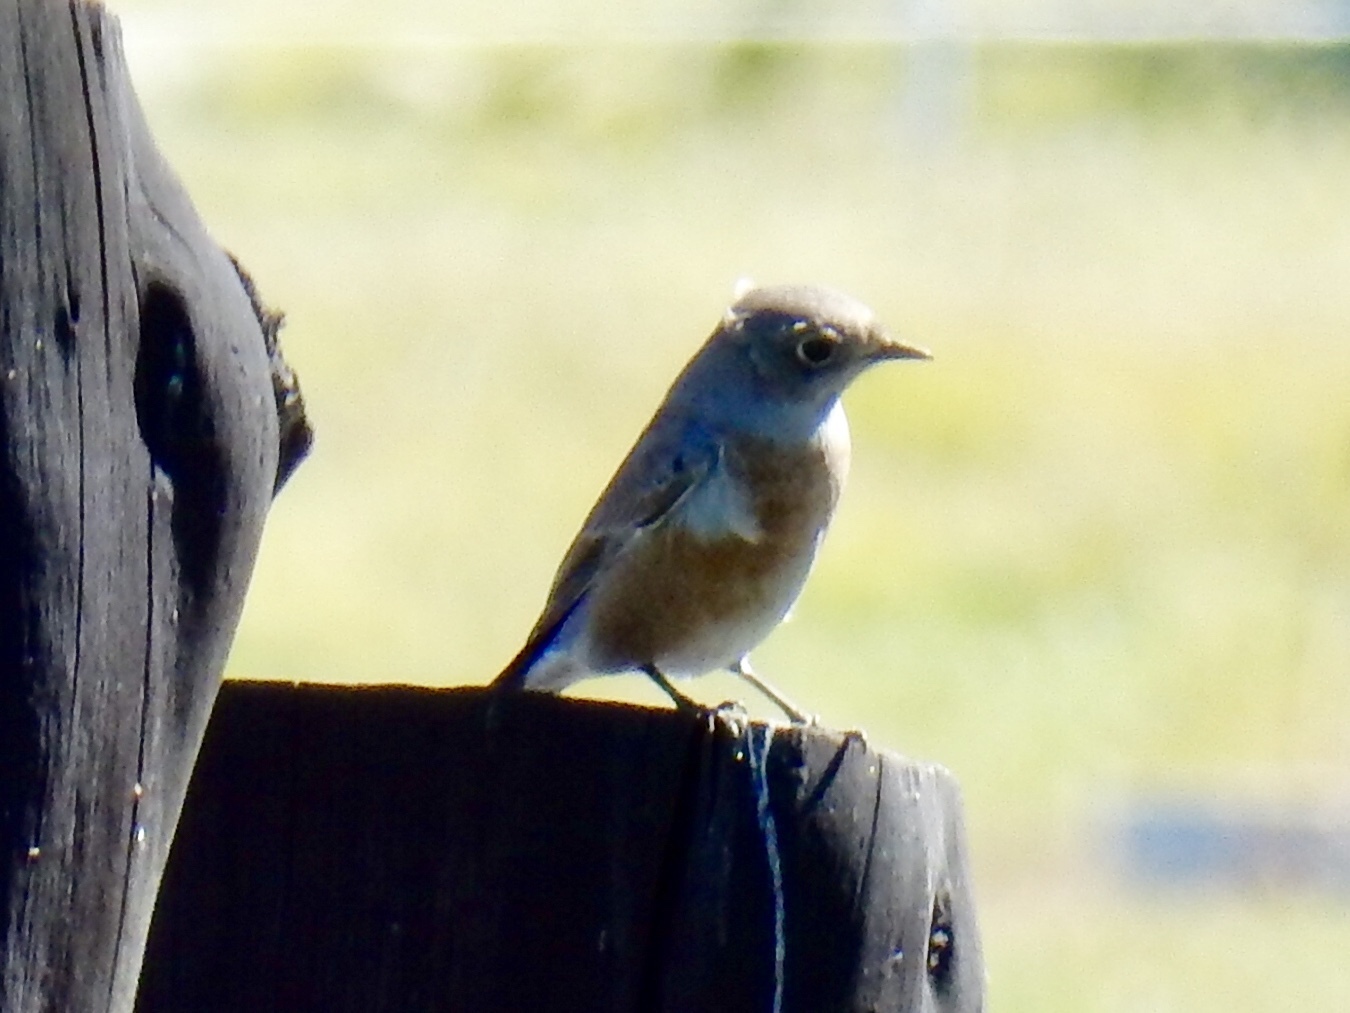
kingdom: Animalia
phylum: Chordata
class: Aves
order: Passeriformes
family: Turdidae
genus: Sialia
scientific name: Sialia mexicana
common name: Western bluebird
